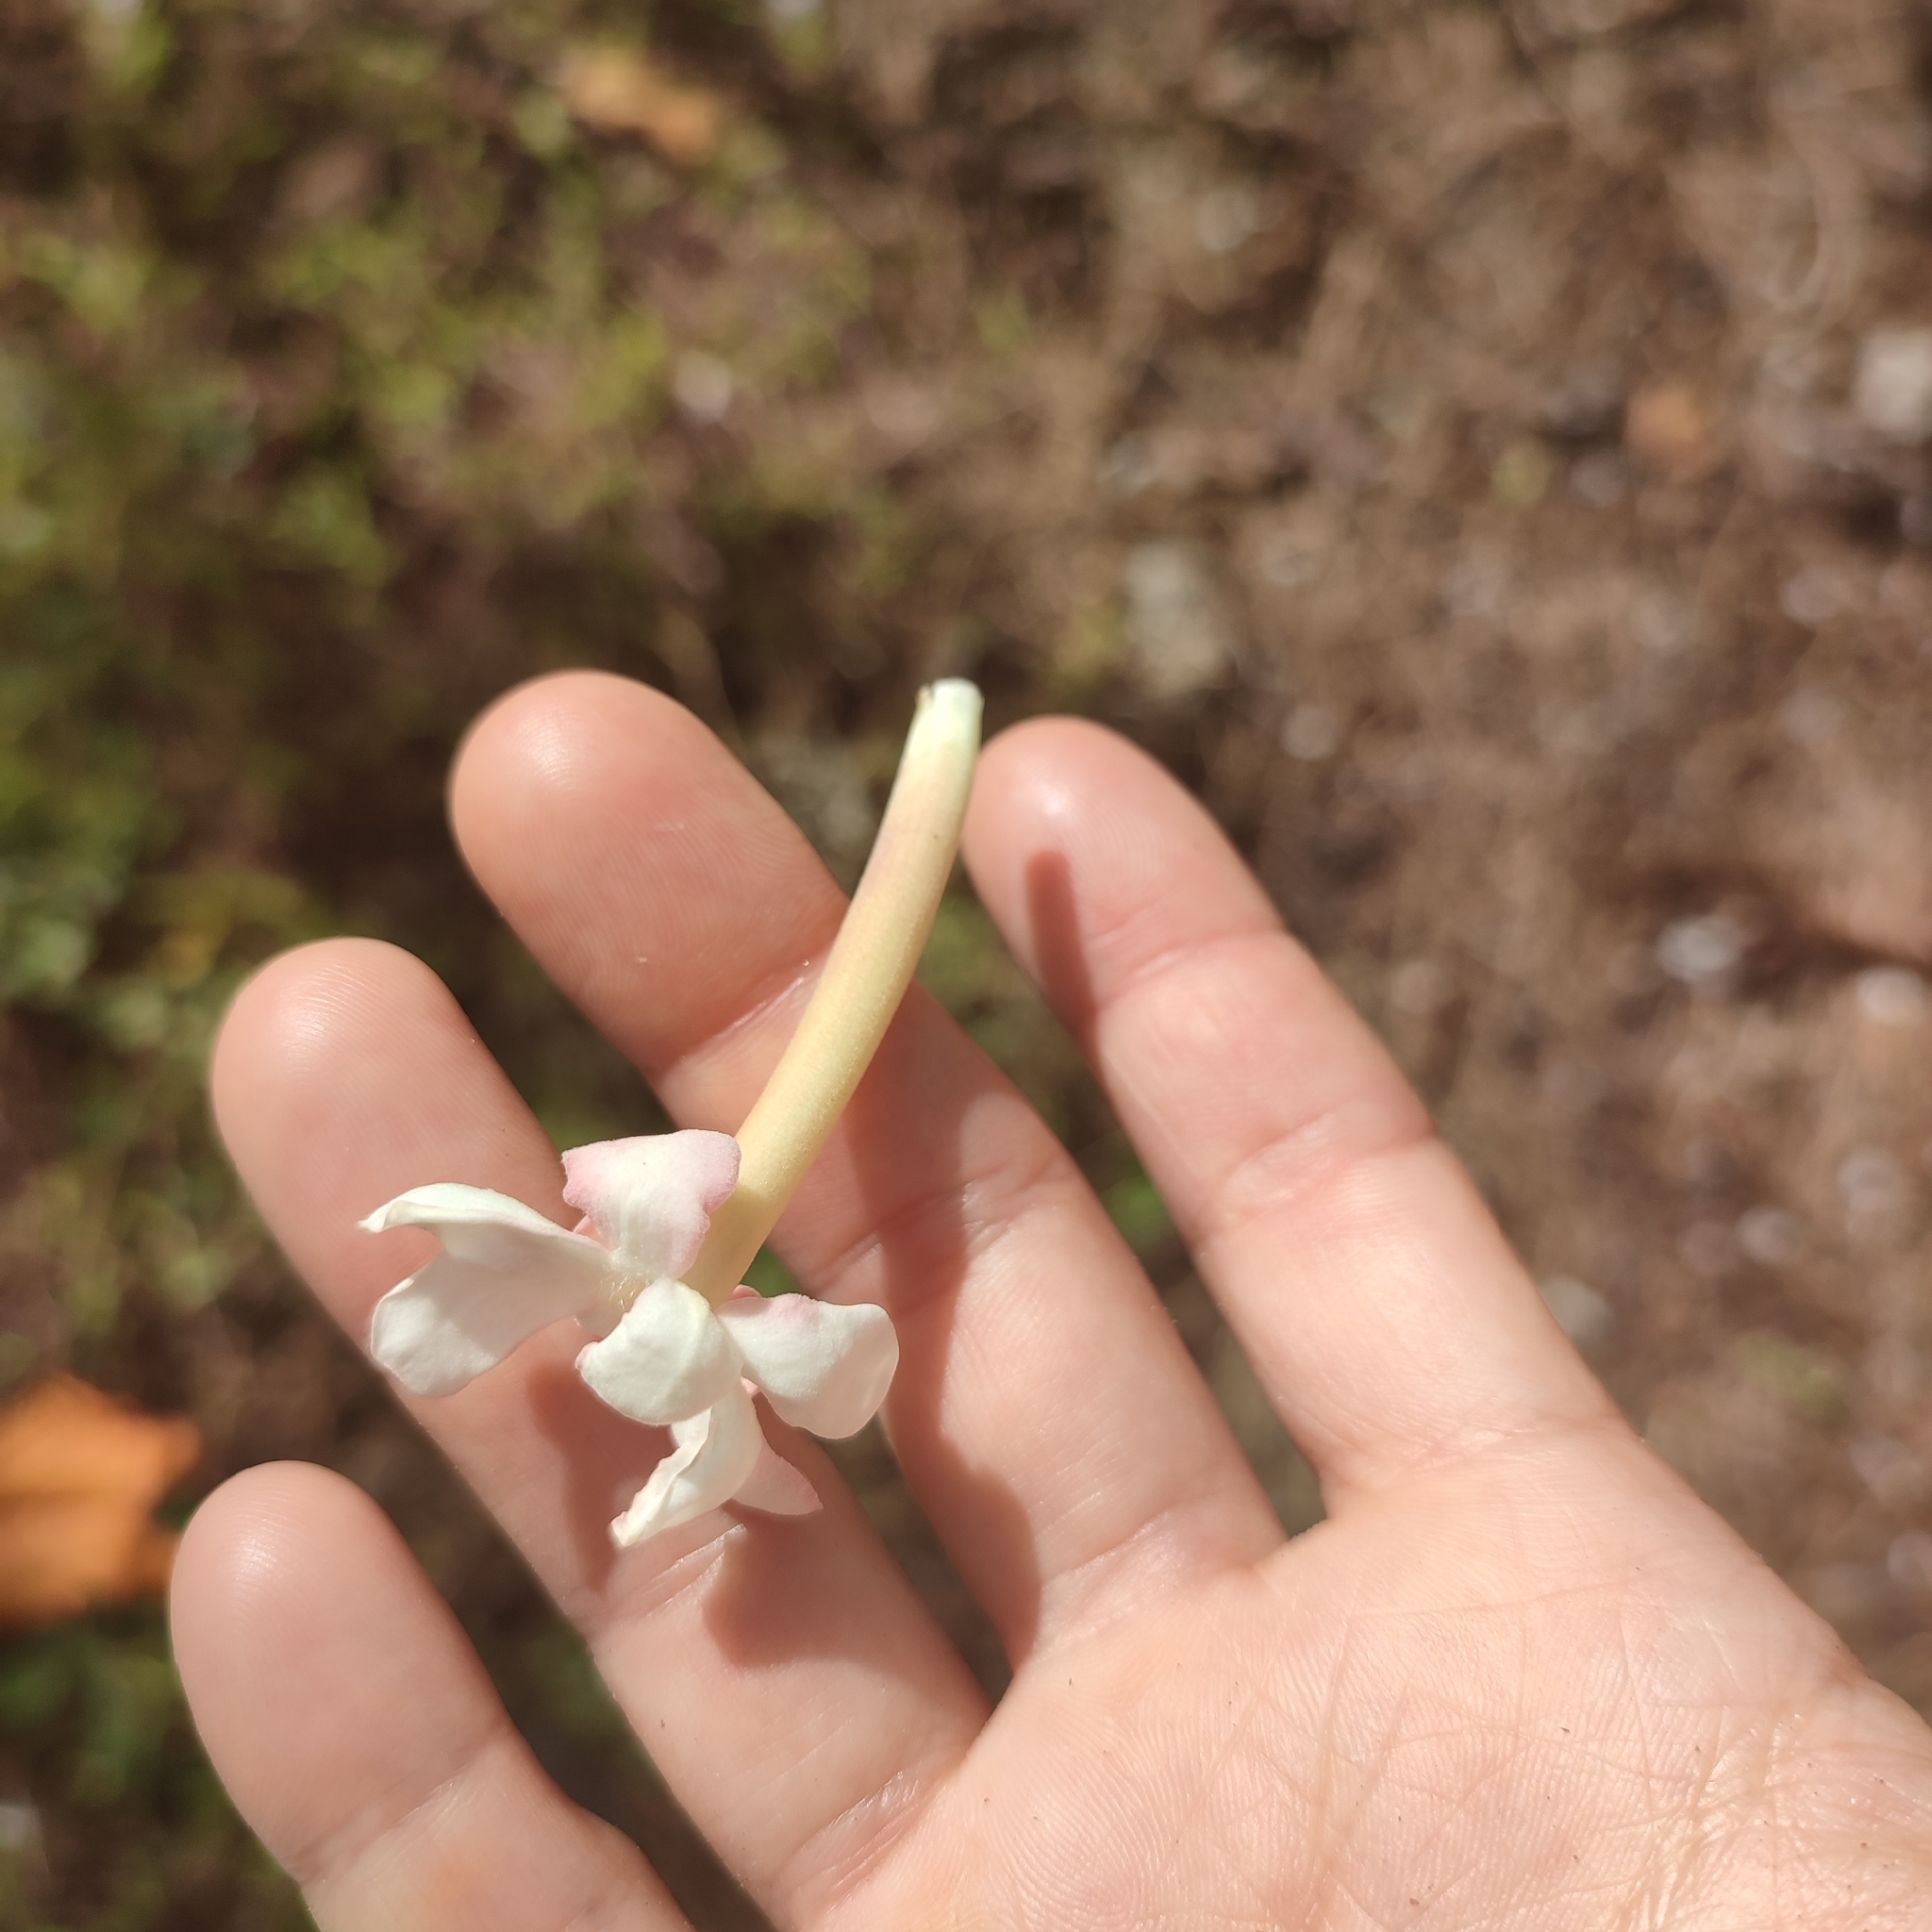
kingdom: Plantae
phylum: Tracheophyta
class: Magnoliopsida
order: Gentianales
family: Rubiaceae
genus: Guettarda
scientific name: Guettarda speciosa
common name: Sea randa
